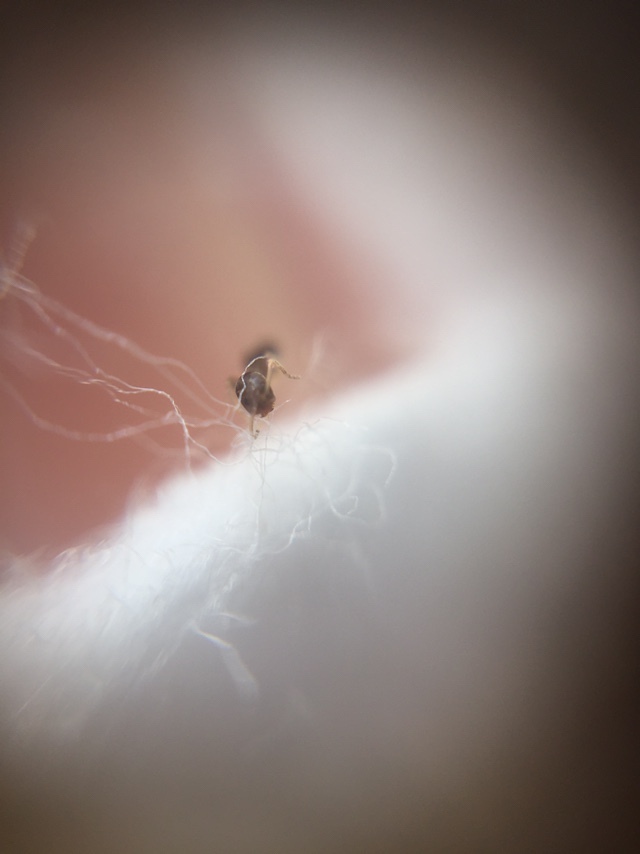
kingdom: Animalia
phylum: Arthropoda
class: Insecta
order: Hymenoptera
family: Formicidae
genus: Tapinoma
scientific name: Tapinoma melanocephalum
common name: Ghost ant
